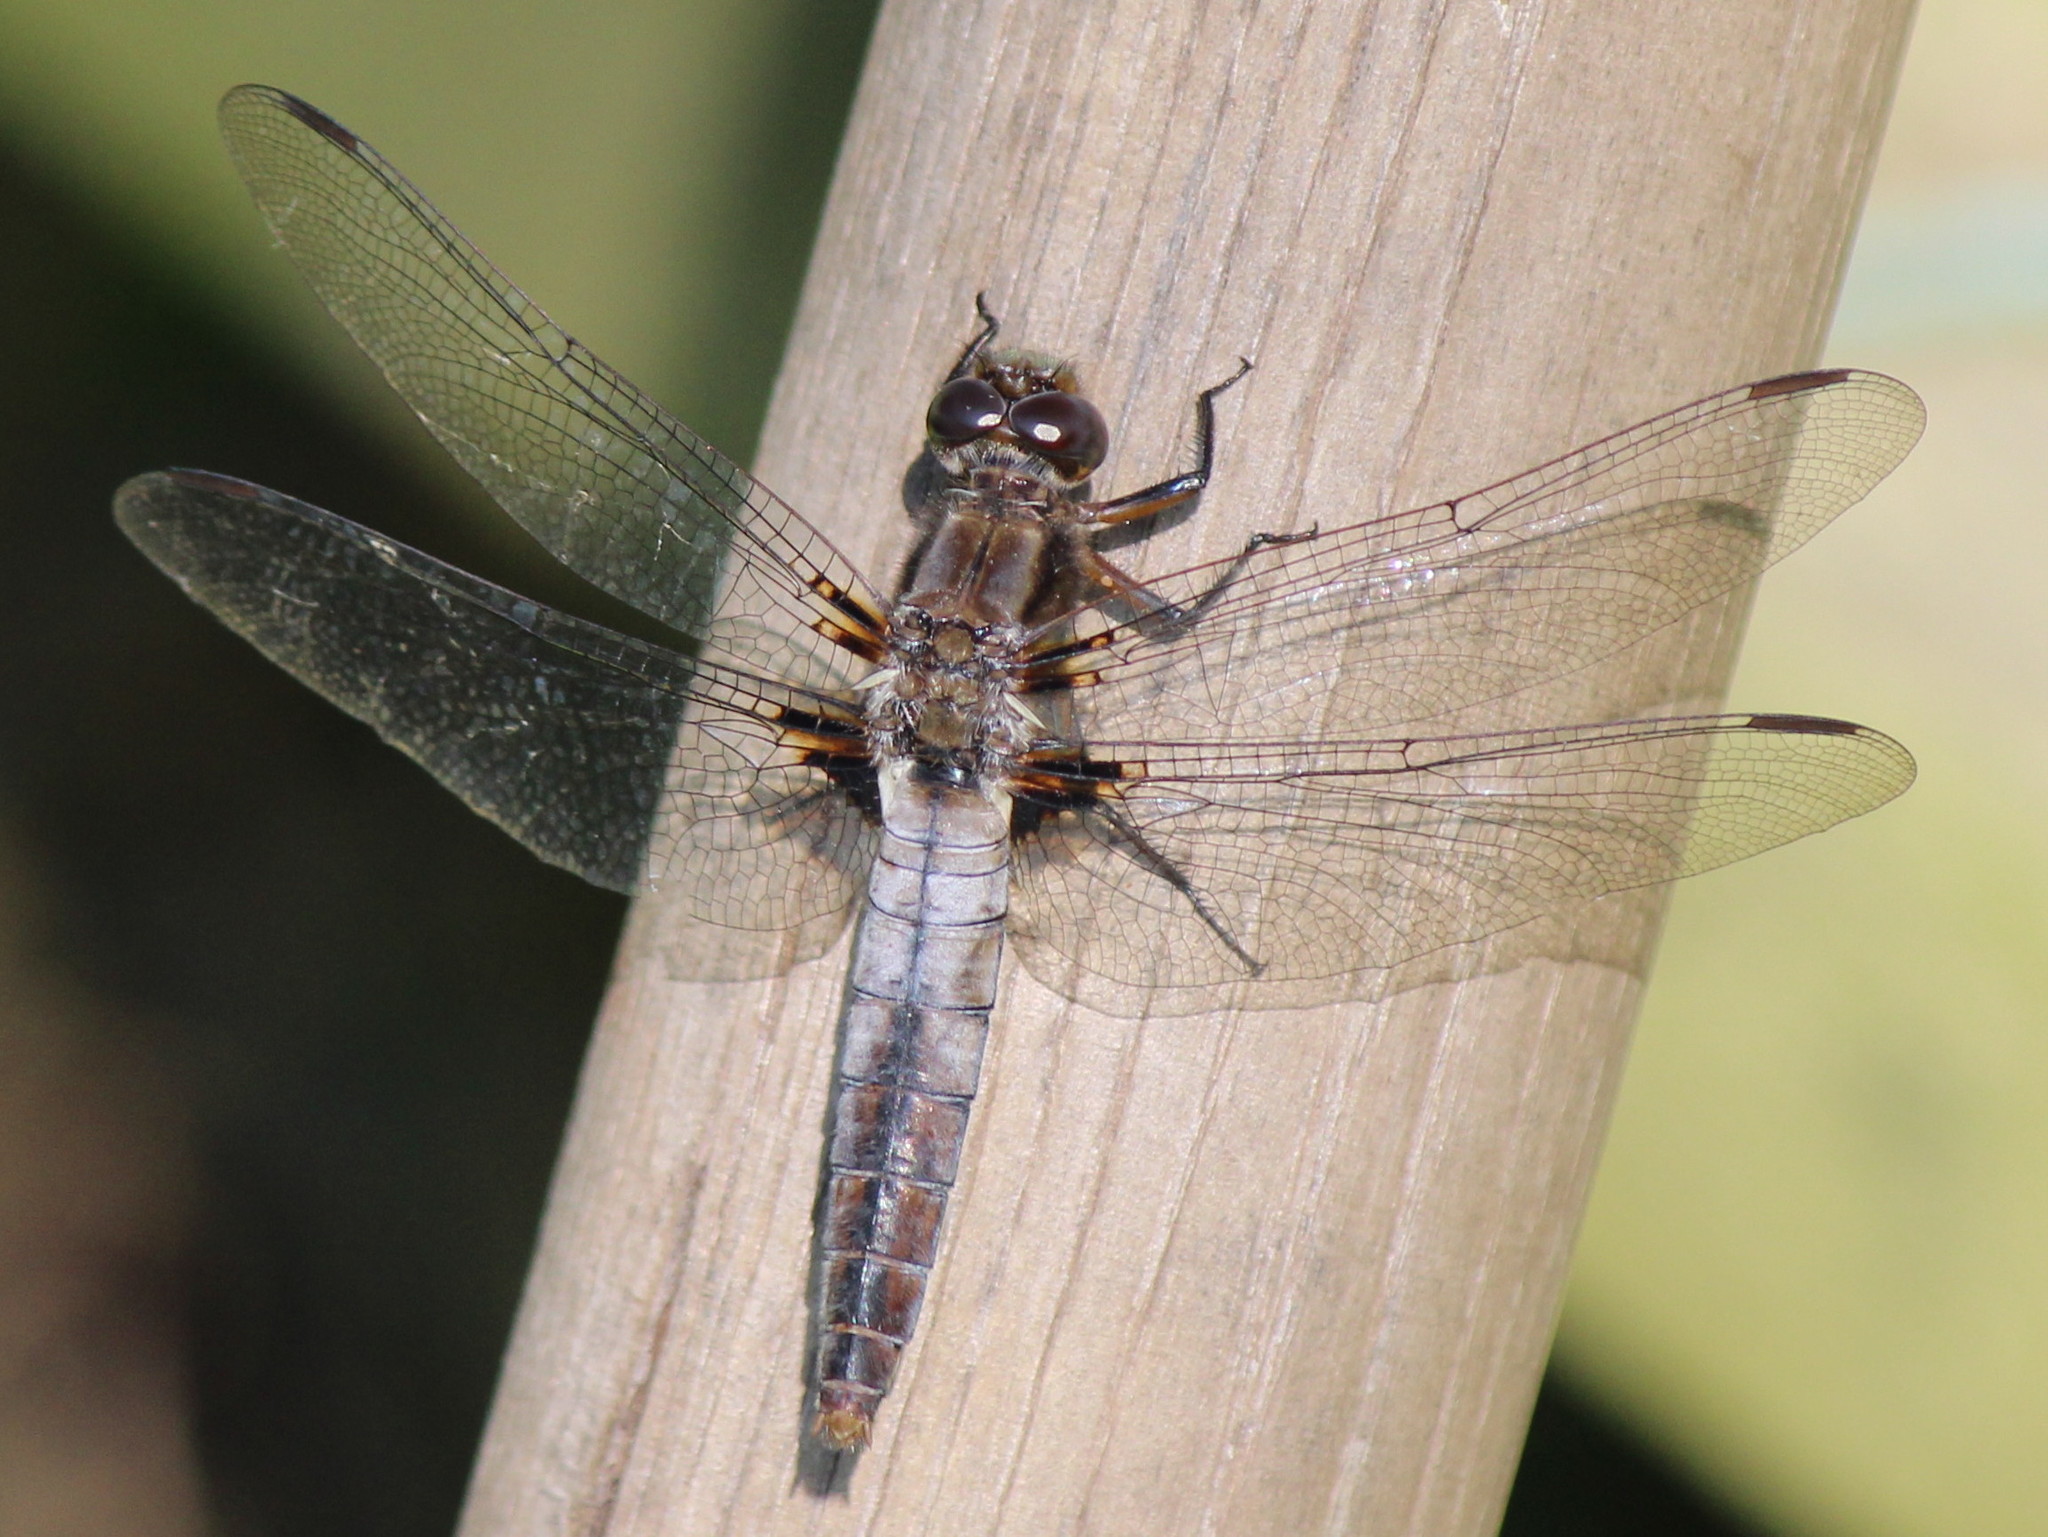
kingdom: Animalia
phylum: Arthropoda
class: Insecta
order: Odonata
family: Libellulidae
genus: Ladona
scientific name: Ladona julia
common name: Chalk-fronted corporal
